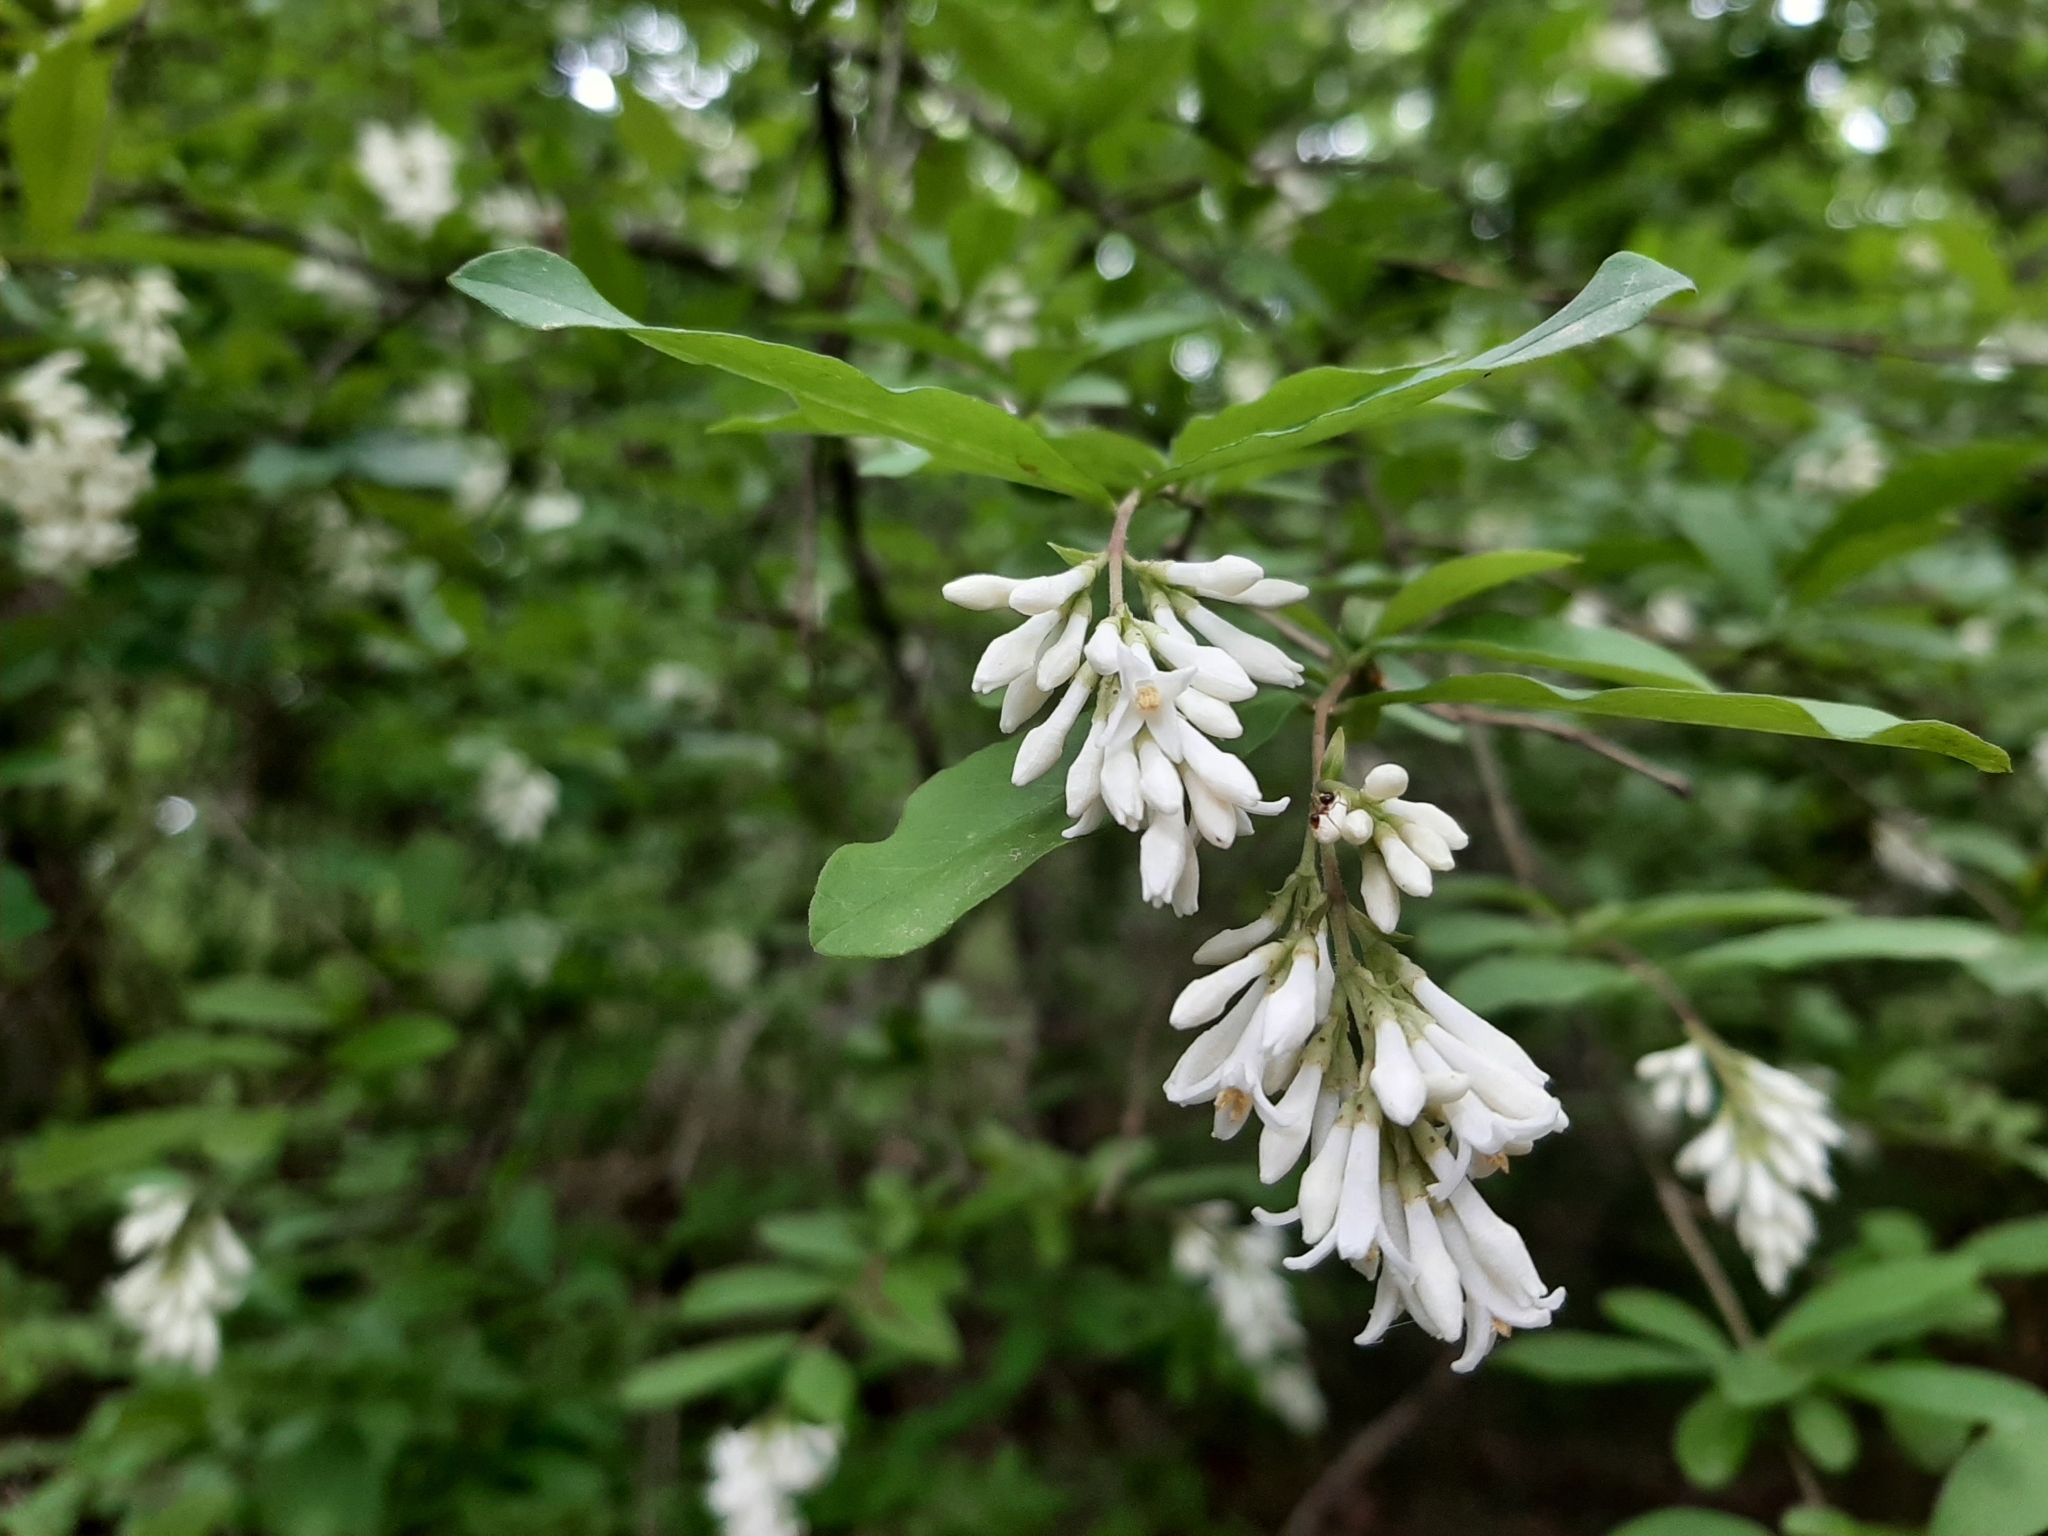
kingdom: Plantae
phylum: Tracheophyta
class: Magnoliopsida
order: Lamiales
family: Oleaceae
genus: Ligustrum
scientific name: Ligustrum obtusifolium
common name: Border privet
